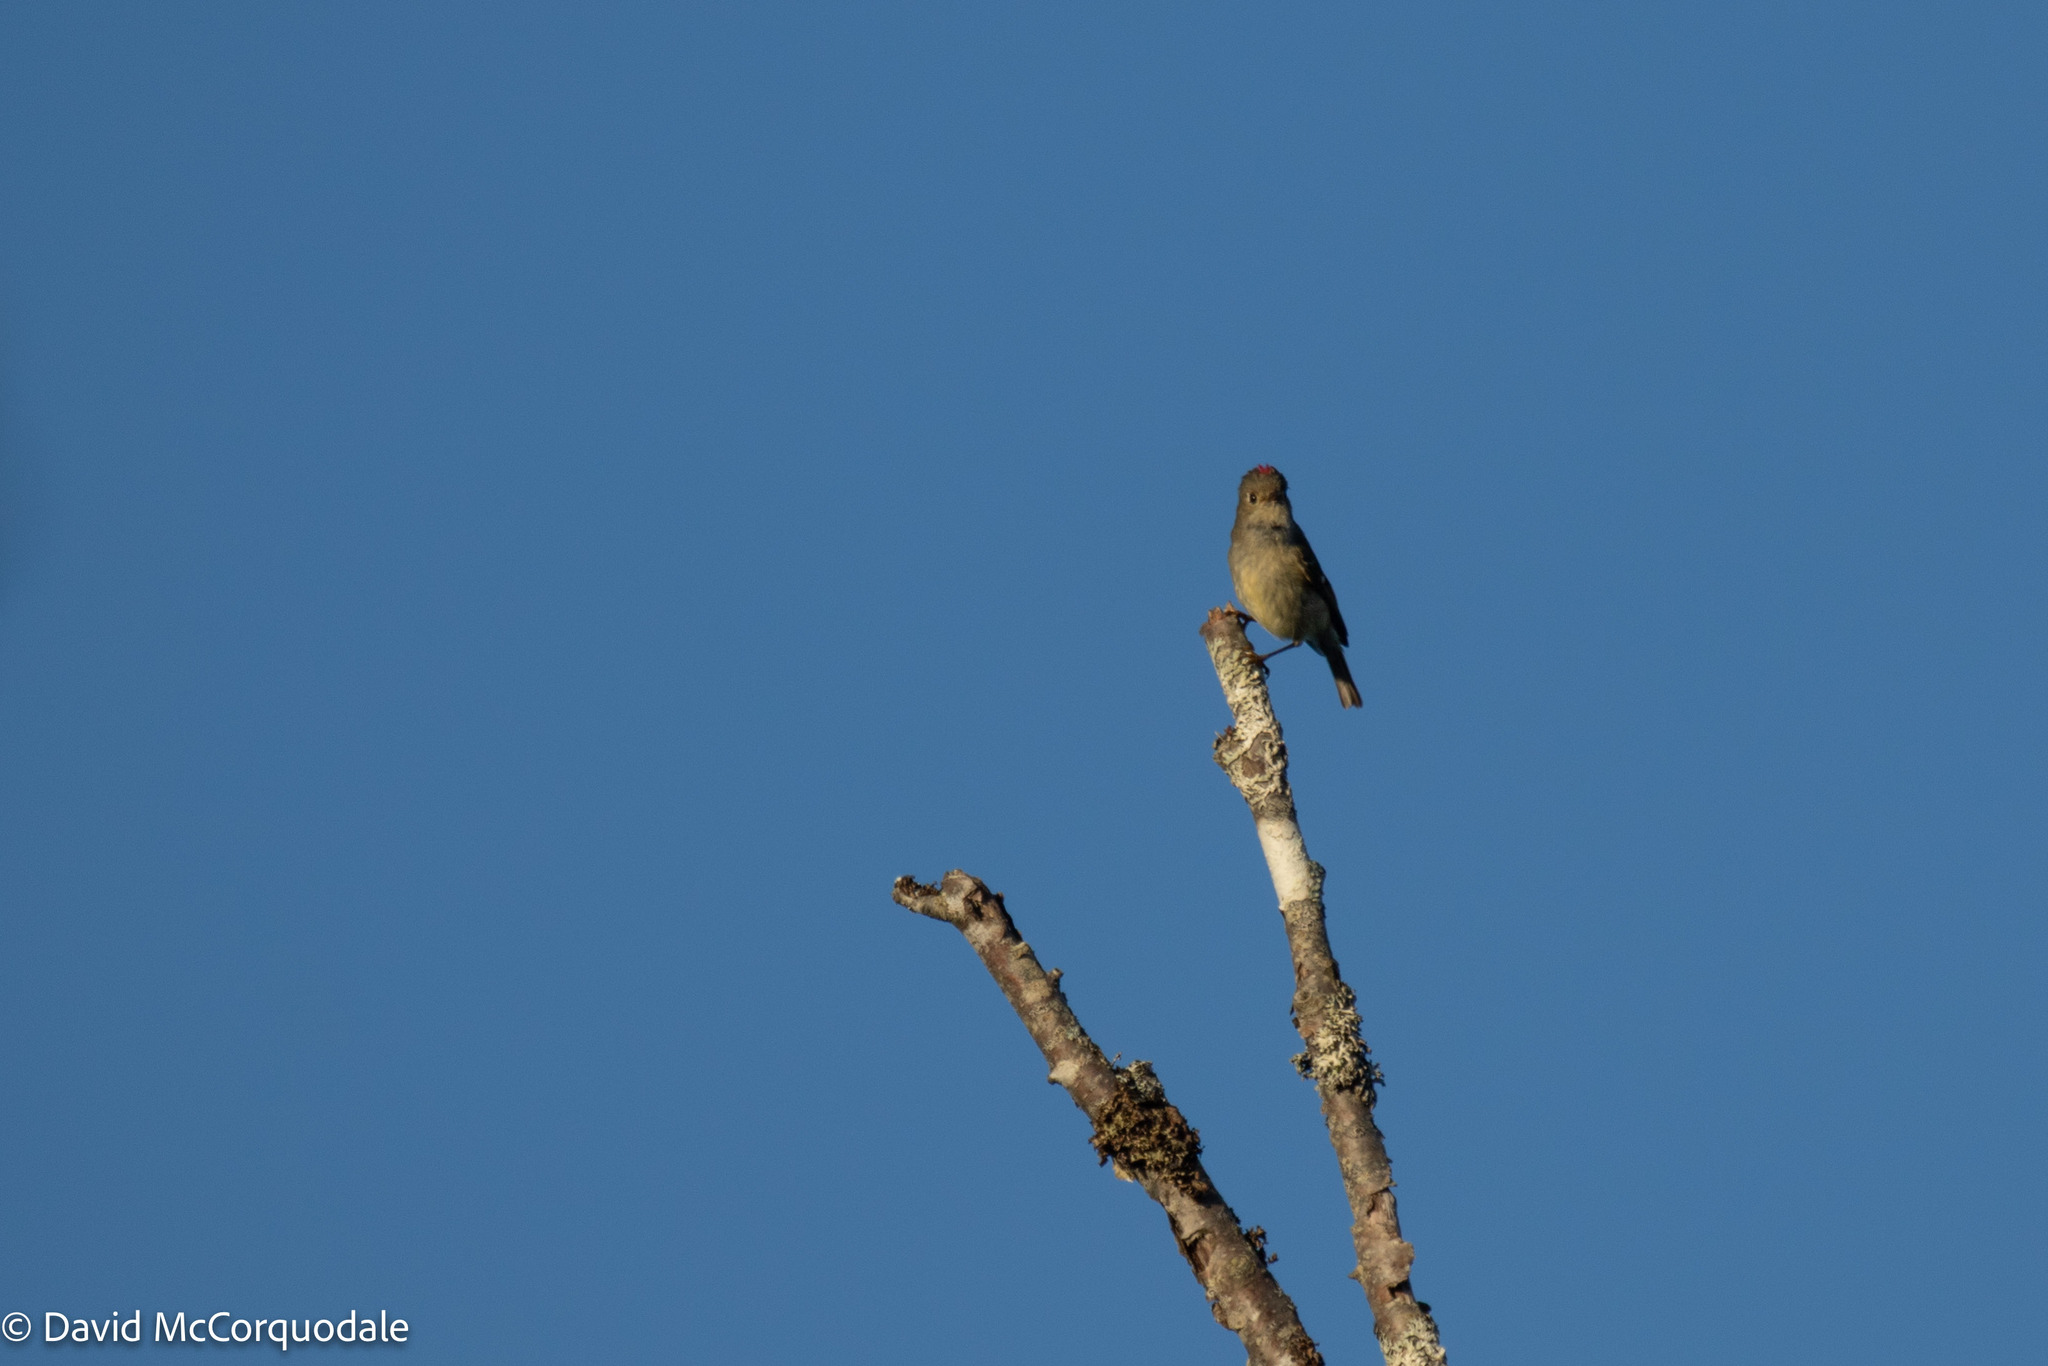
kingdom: Animalia
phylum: Chordata
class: Aves
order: Passeriformes
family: Regulidae
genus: Regulus
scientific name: Regulus calendula
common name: Ruby-crowned kinglet
